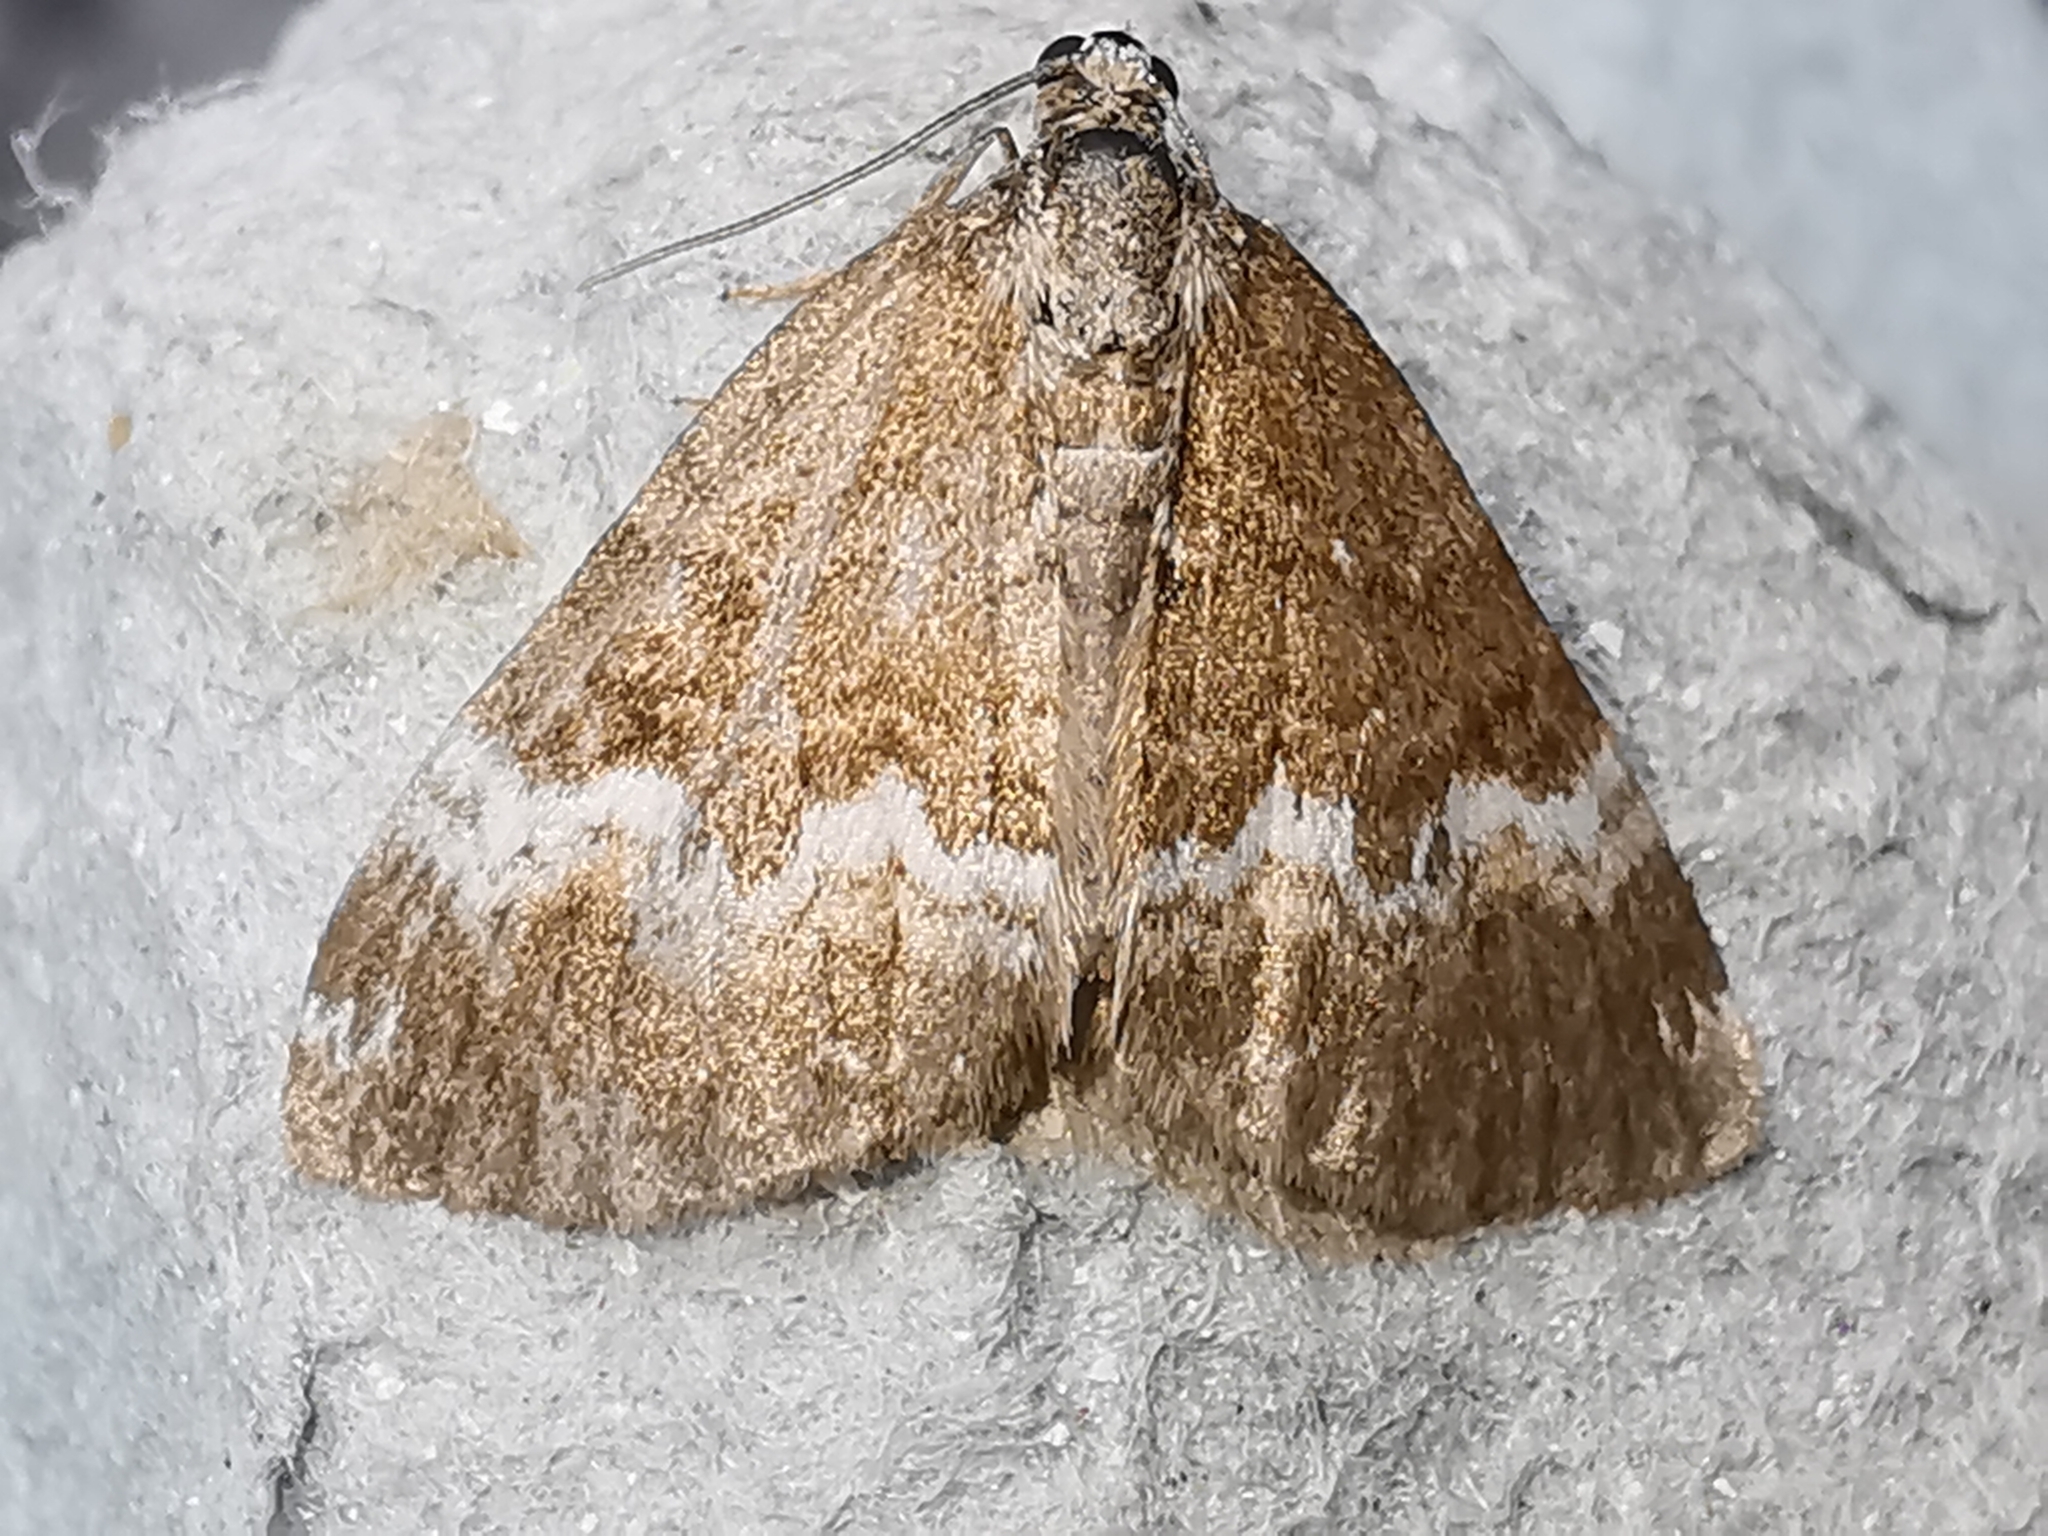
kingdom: Animalia
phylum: Arthropoda
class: Insecta
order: Lepidoptera
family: Geometridae
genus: Perizoma
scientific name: Perizoma affinitata
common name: Rivulet
